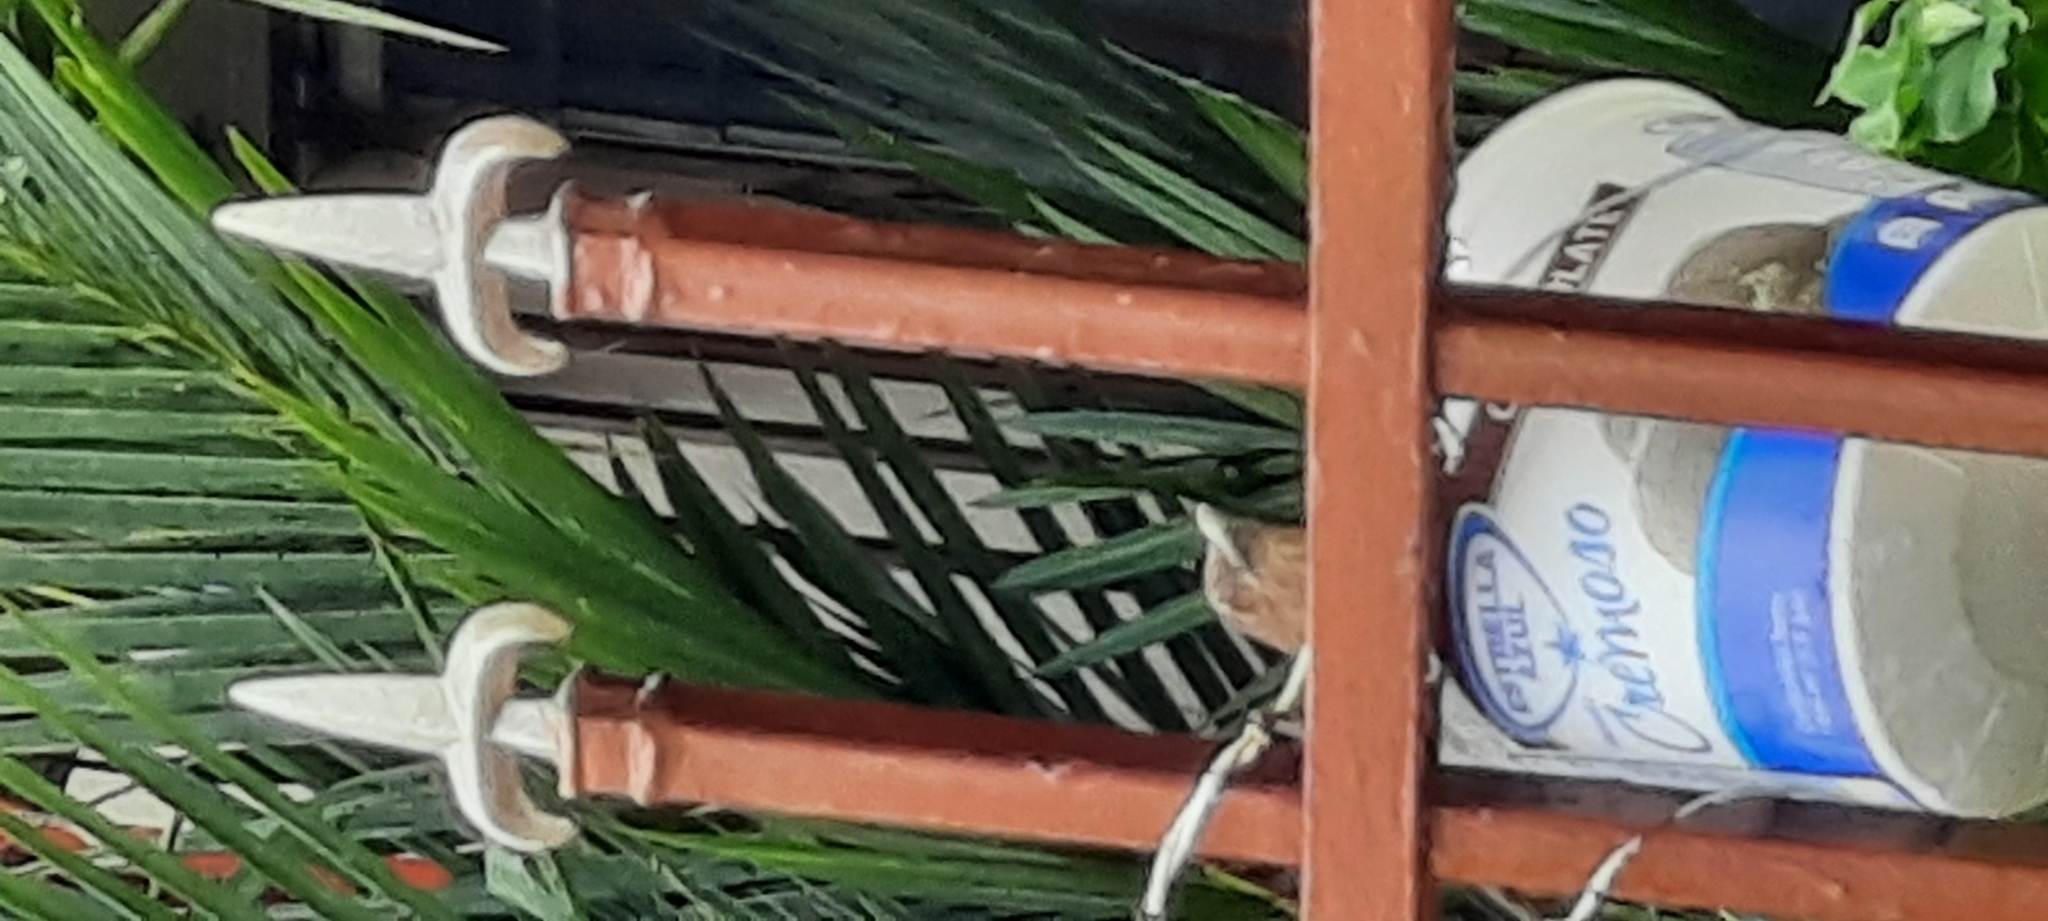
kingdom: Animalia
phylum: Chordata
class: Aves
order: Passeriformes
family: Turdidae
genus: Turdus
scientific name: Turdus grayi
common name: Clay-colored thrush
